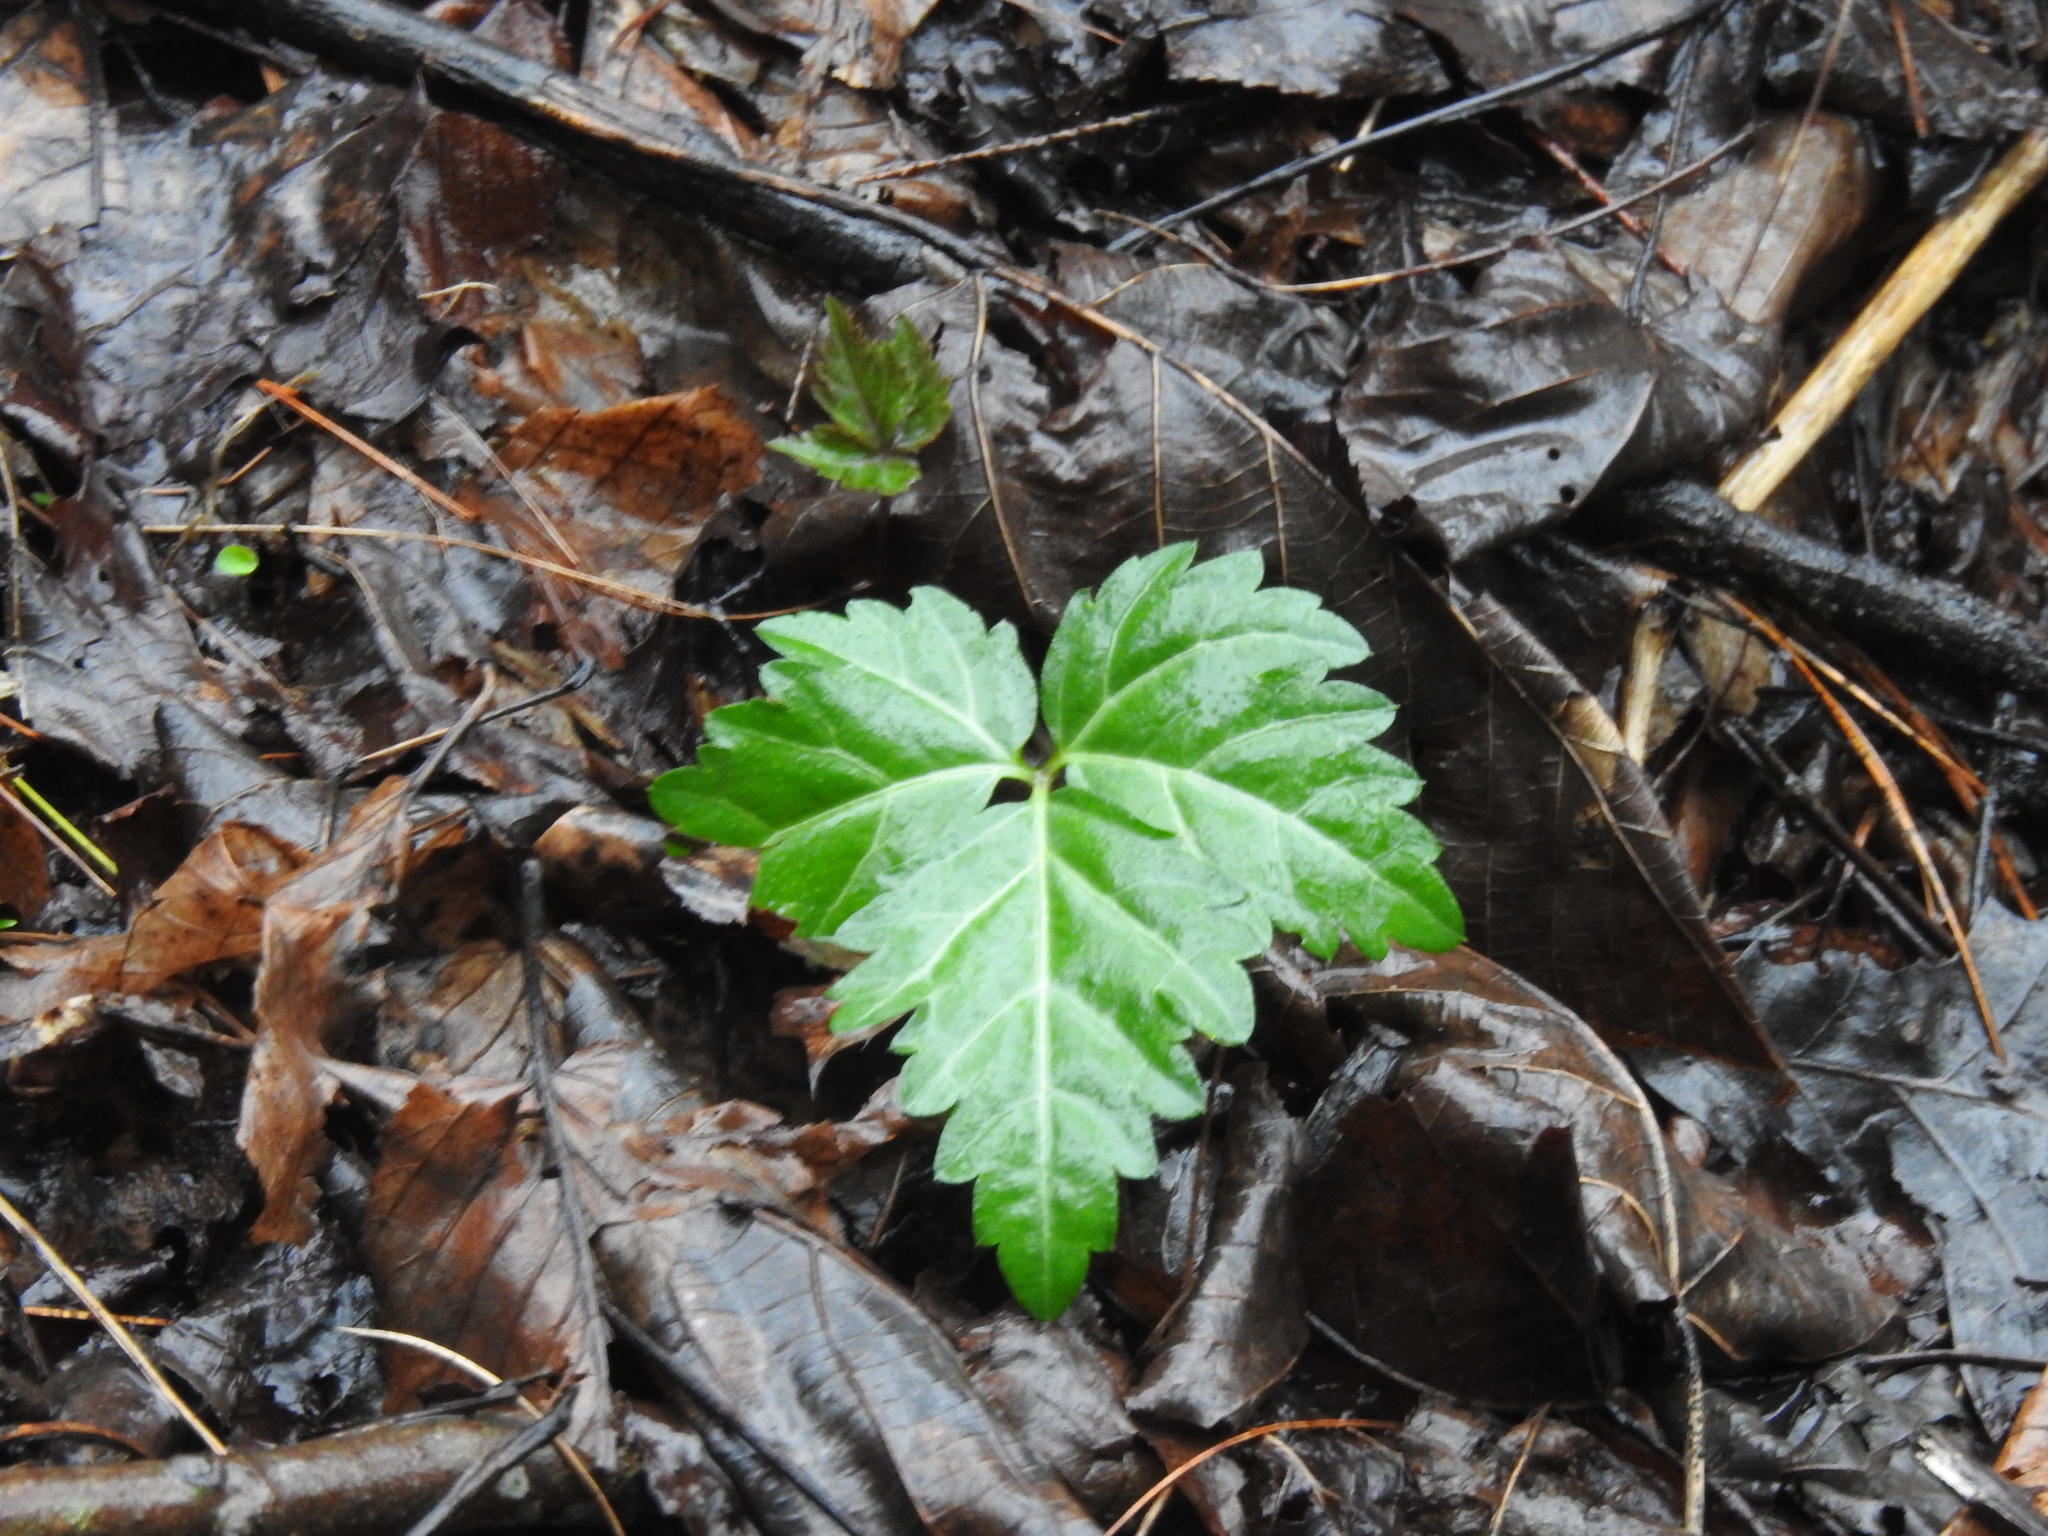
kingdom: Plantae
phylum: Tracheophyta
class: Magnoliopsida
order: Brassicales
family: Brassicaceae
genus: Cardamine
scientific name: Cardamine diphylla
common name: Broad-leaved toothwort
